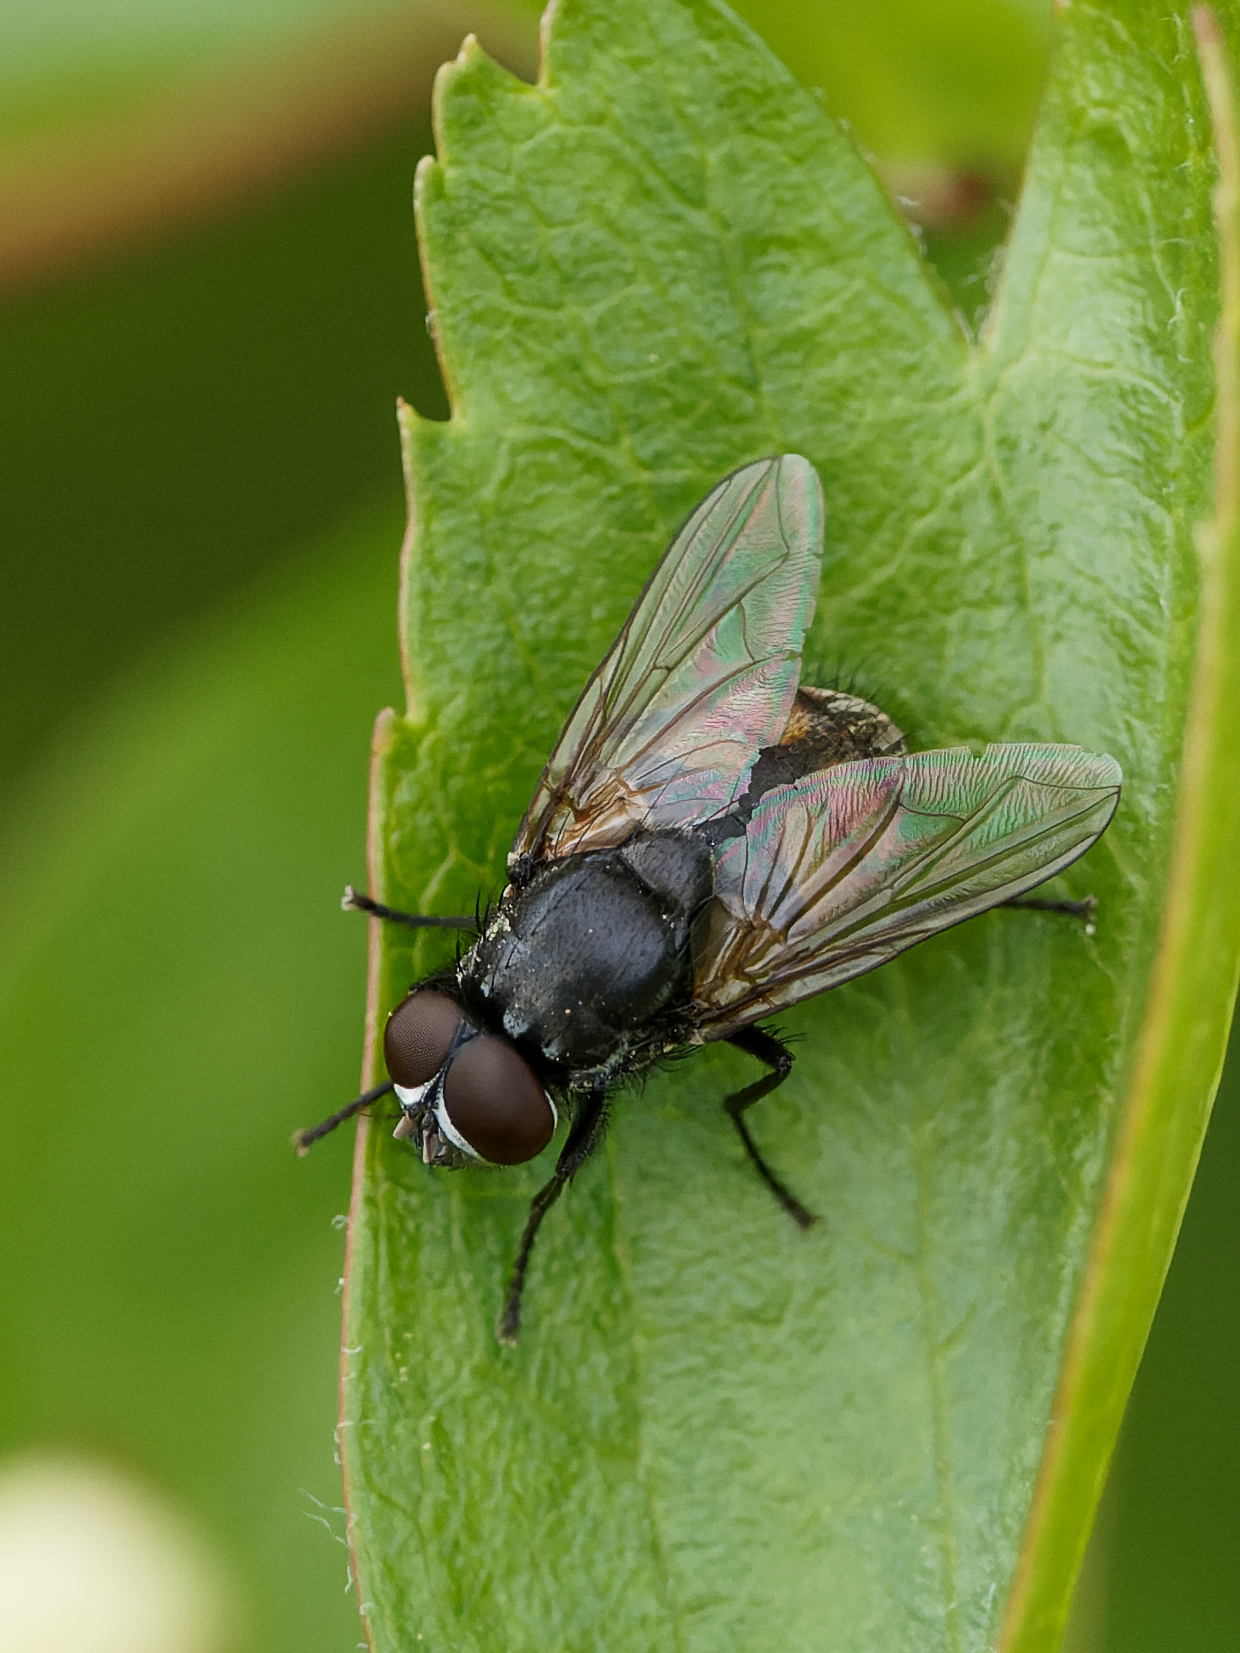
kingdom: Animalia
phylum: Arthropoda
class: Insecta
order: Diptera
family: Muscidae
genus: Musca
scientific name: Musca autumnalis
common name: Face fly
